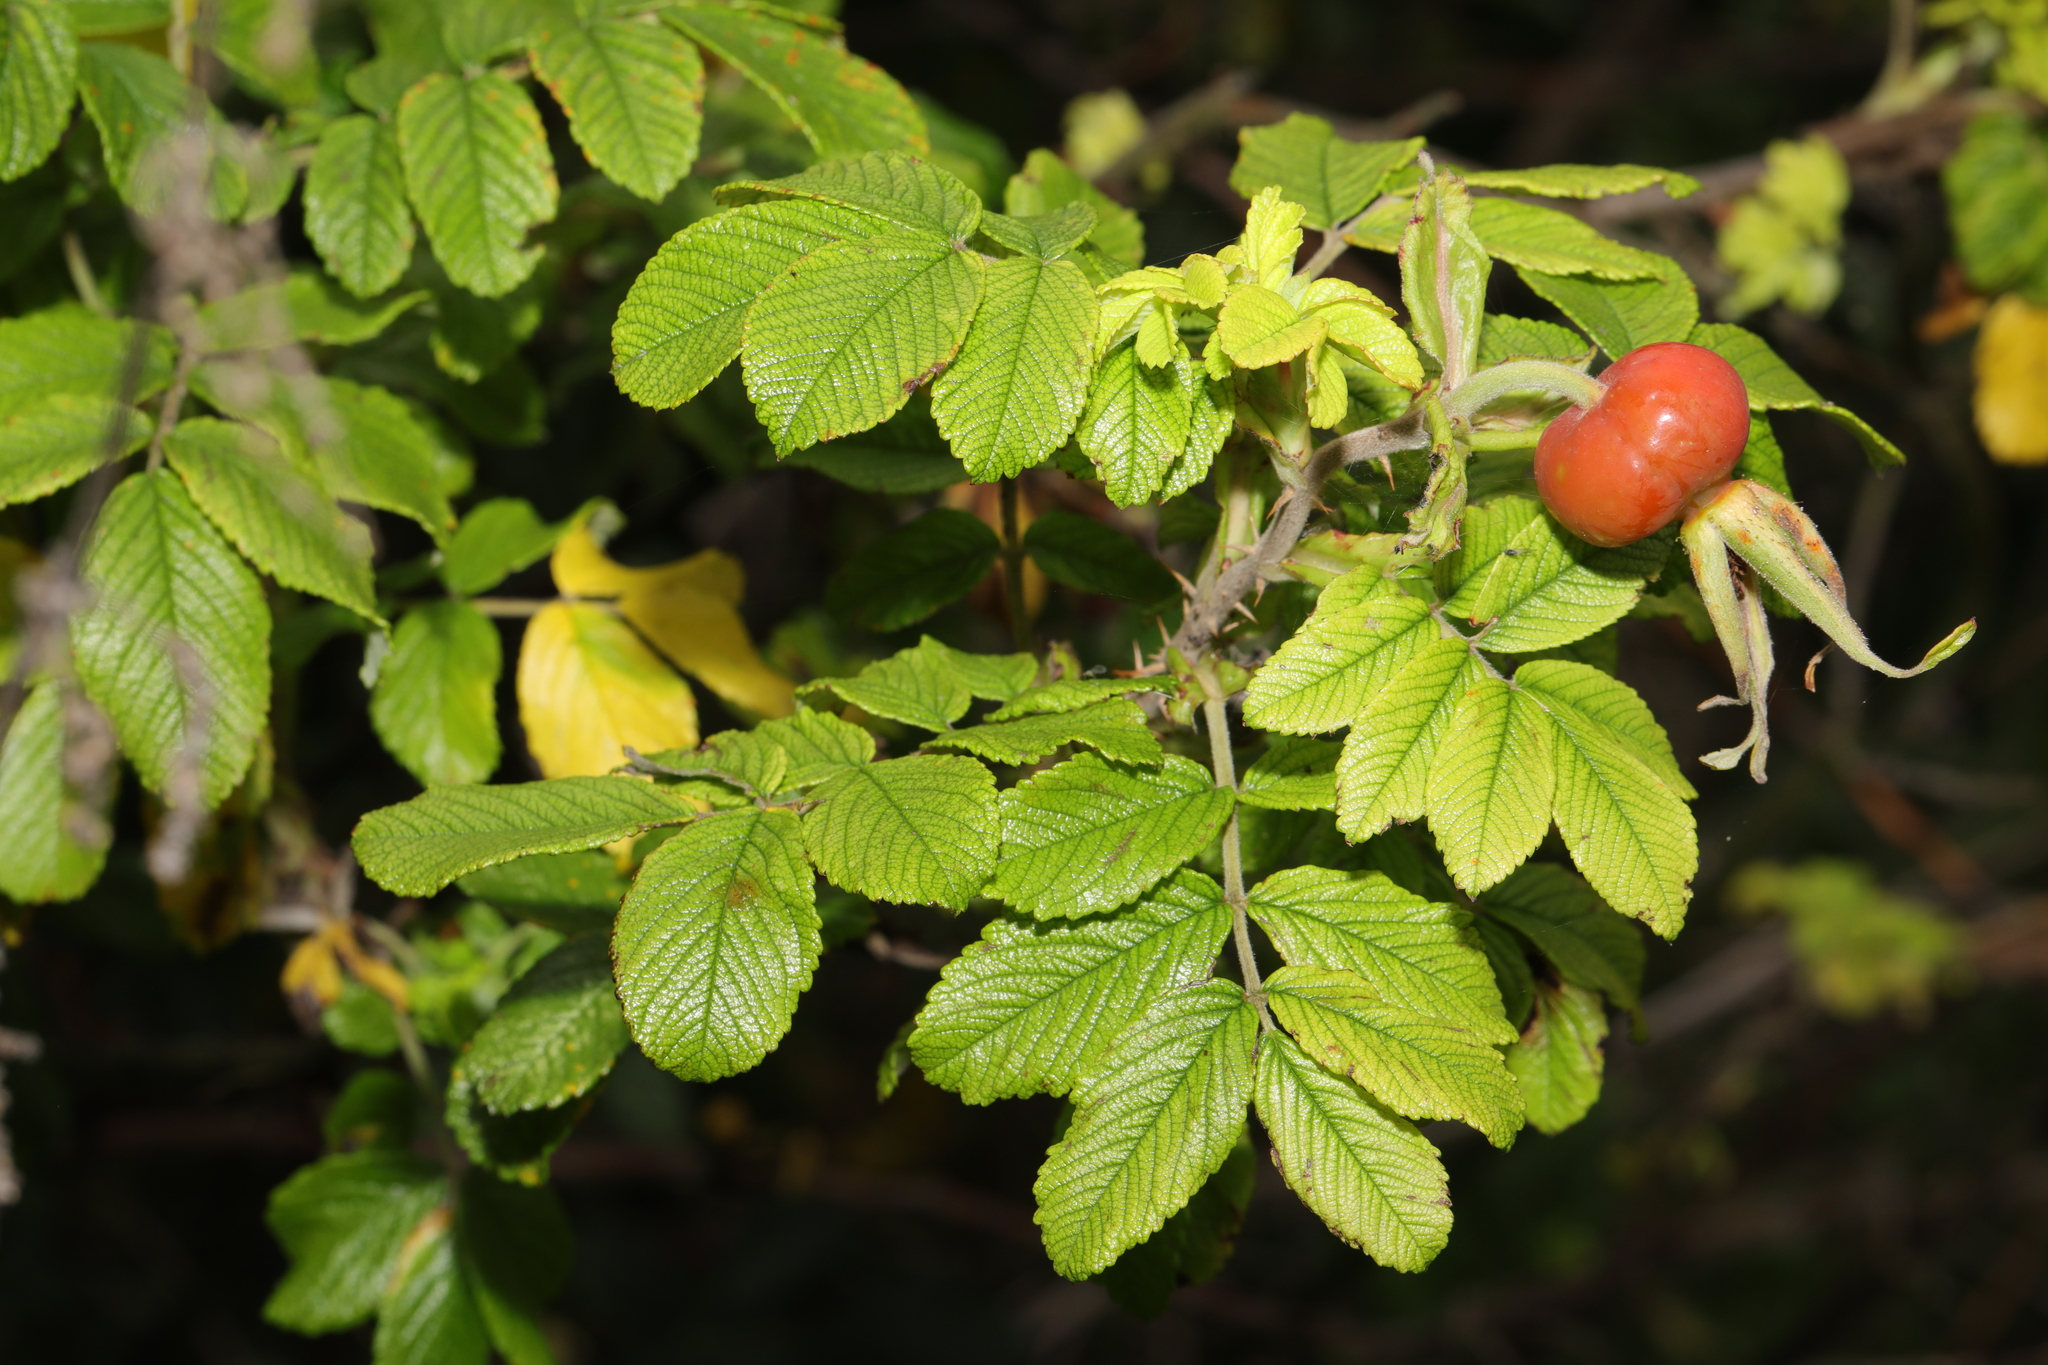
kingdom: Plantae
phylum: Tracheophyta
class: Magnoliopsida
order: Rosales
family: Rosaceae
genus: Rosa
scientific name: Rosa rugosa
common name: Japanese rose
